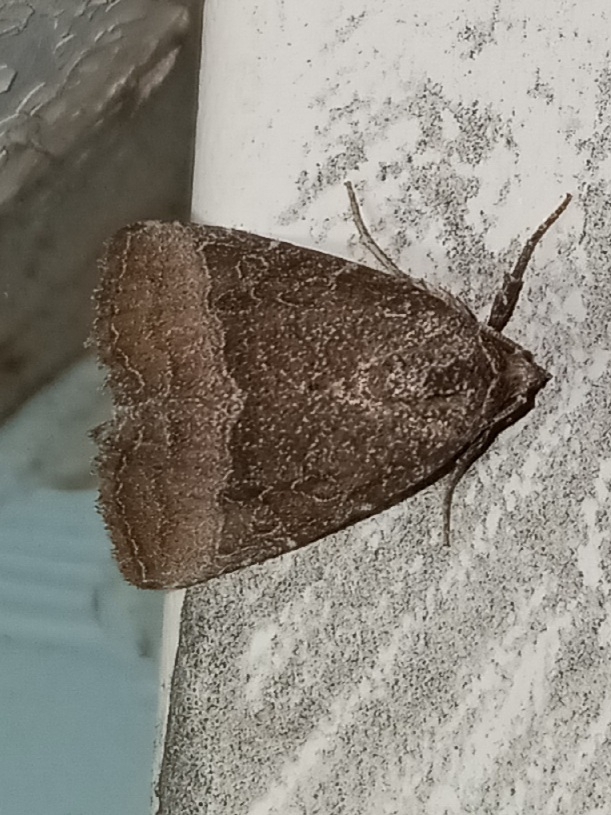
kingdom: Animalia
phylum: Arthropoda
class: Insecta
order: Lepidoptera
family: Noctuidae
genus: Ogdoconta
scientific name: Ogdoconta cinereola
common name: Common pinkband
